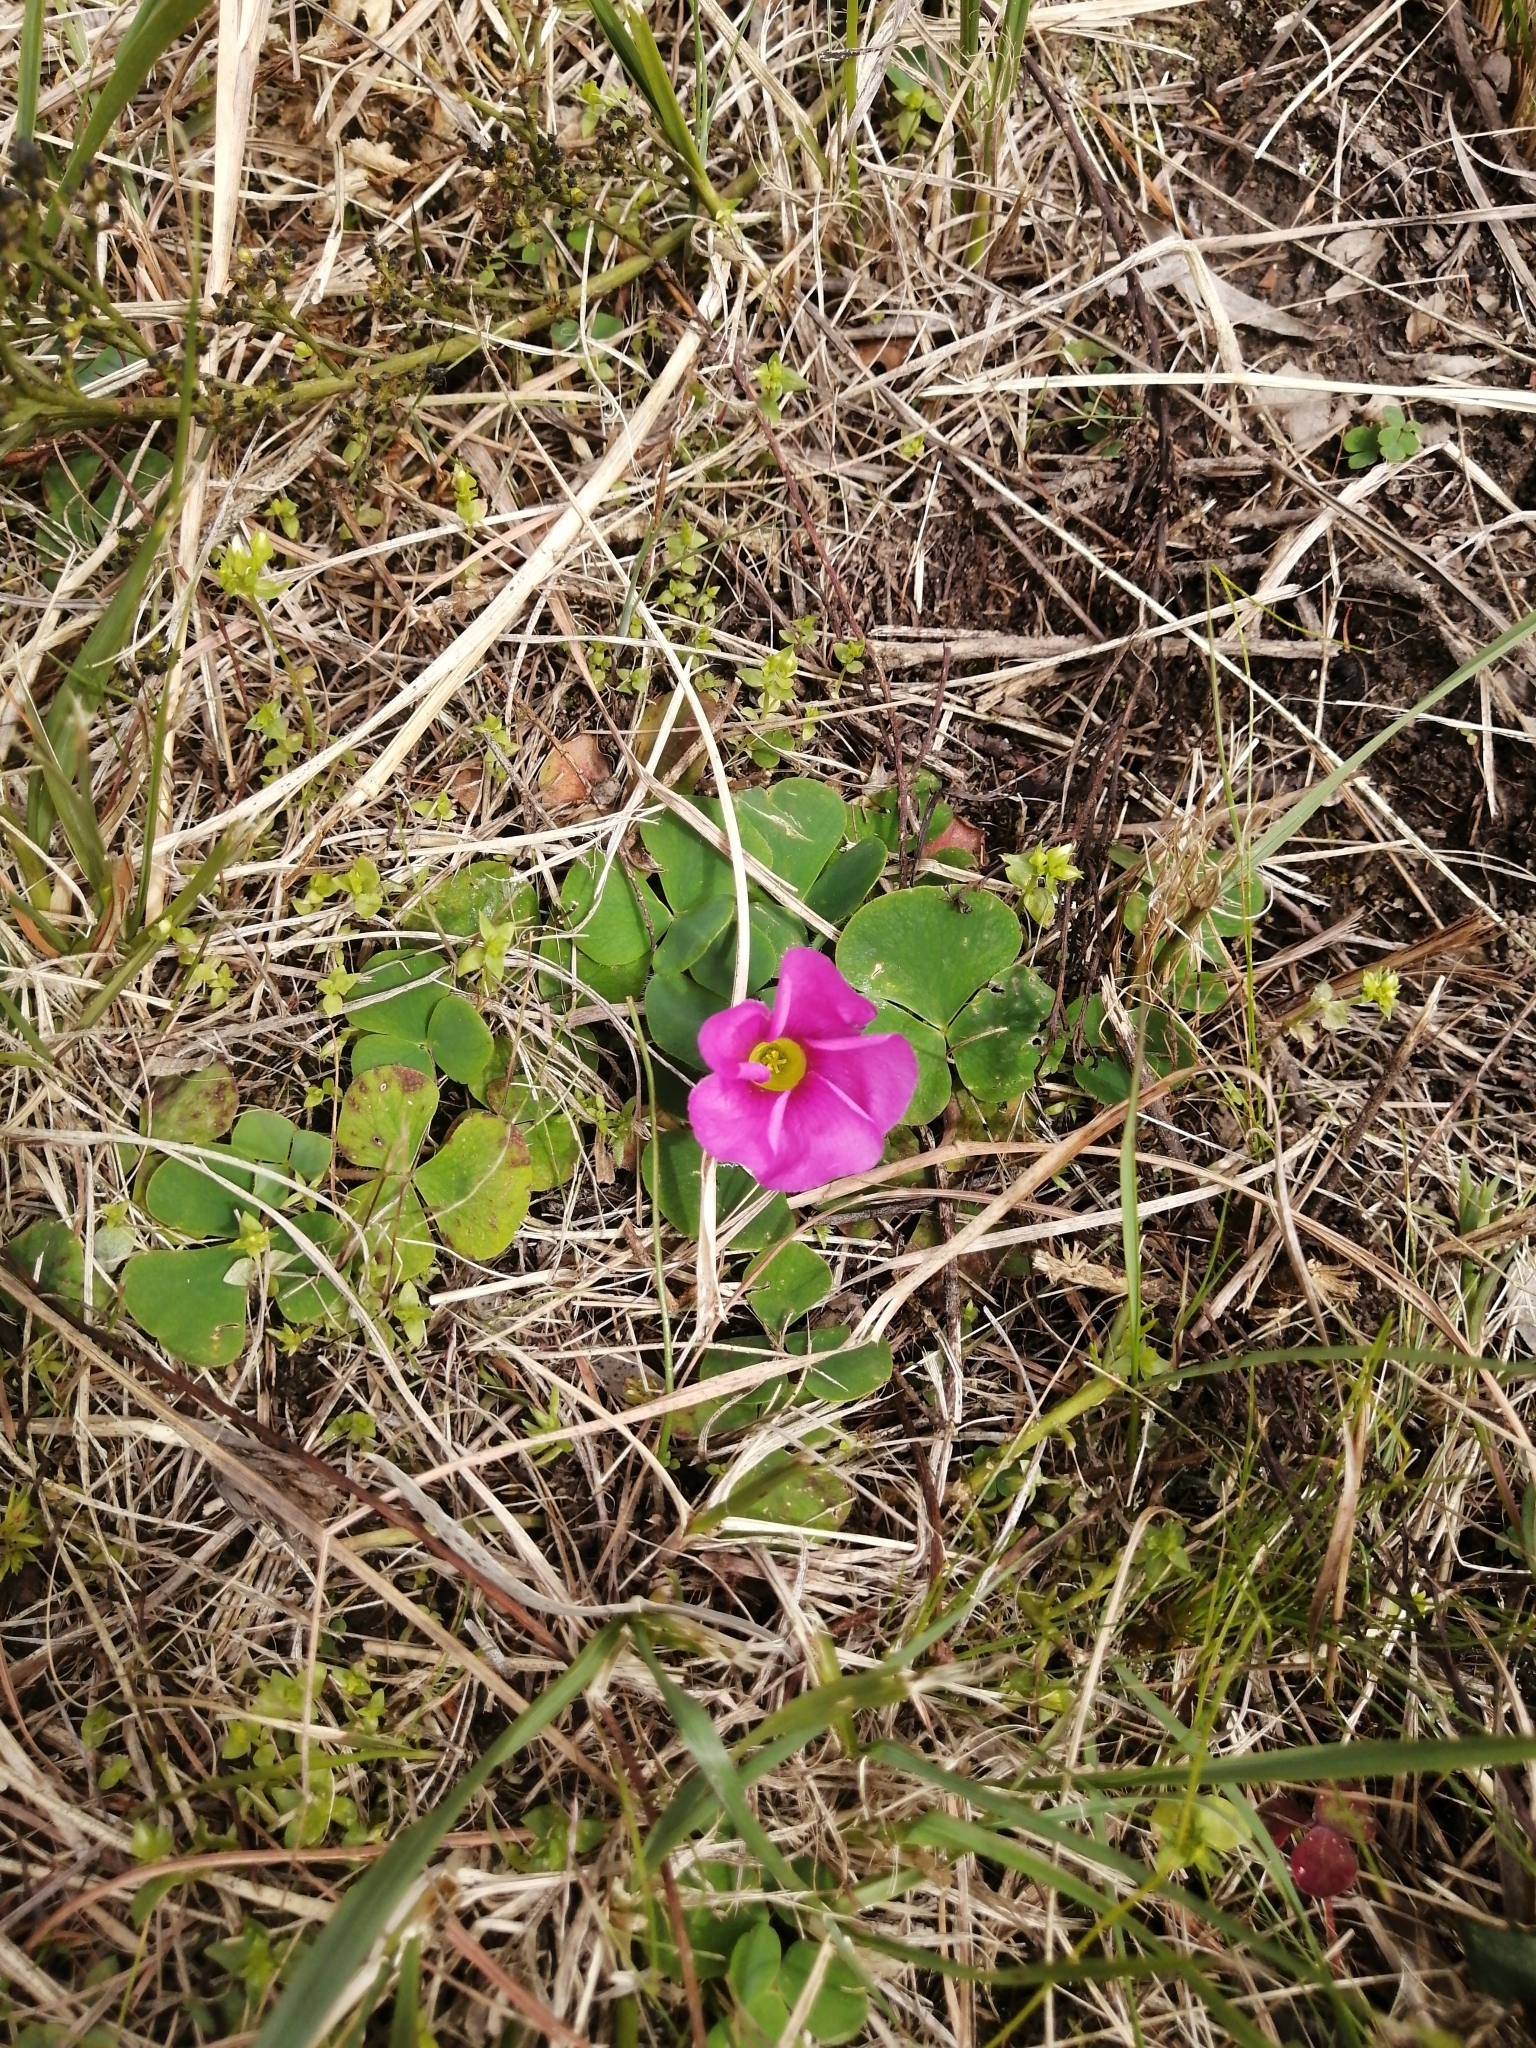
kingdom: Plantae
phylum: Tracheophyta
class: Magnoliopsida
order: Oxalidales
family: Oxalidaceae
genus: Oxalis
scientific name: Oxalis purpurea
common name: Purple woodsorrel
